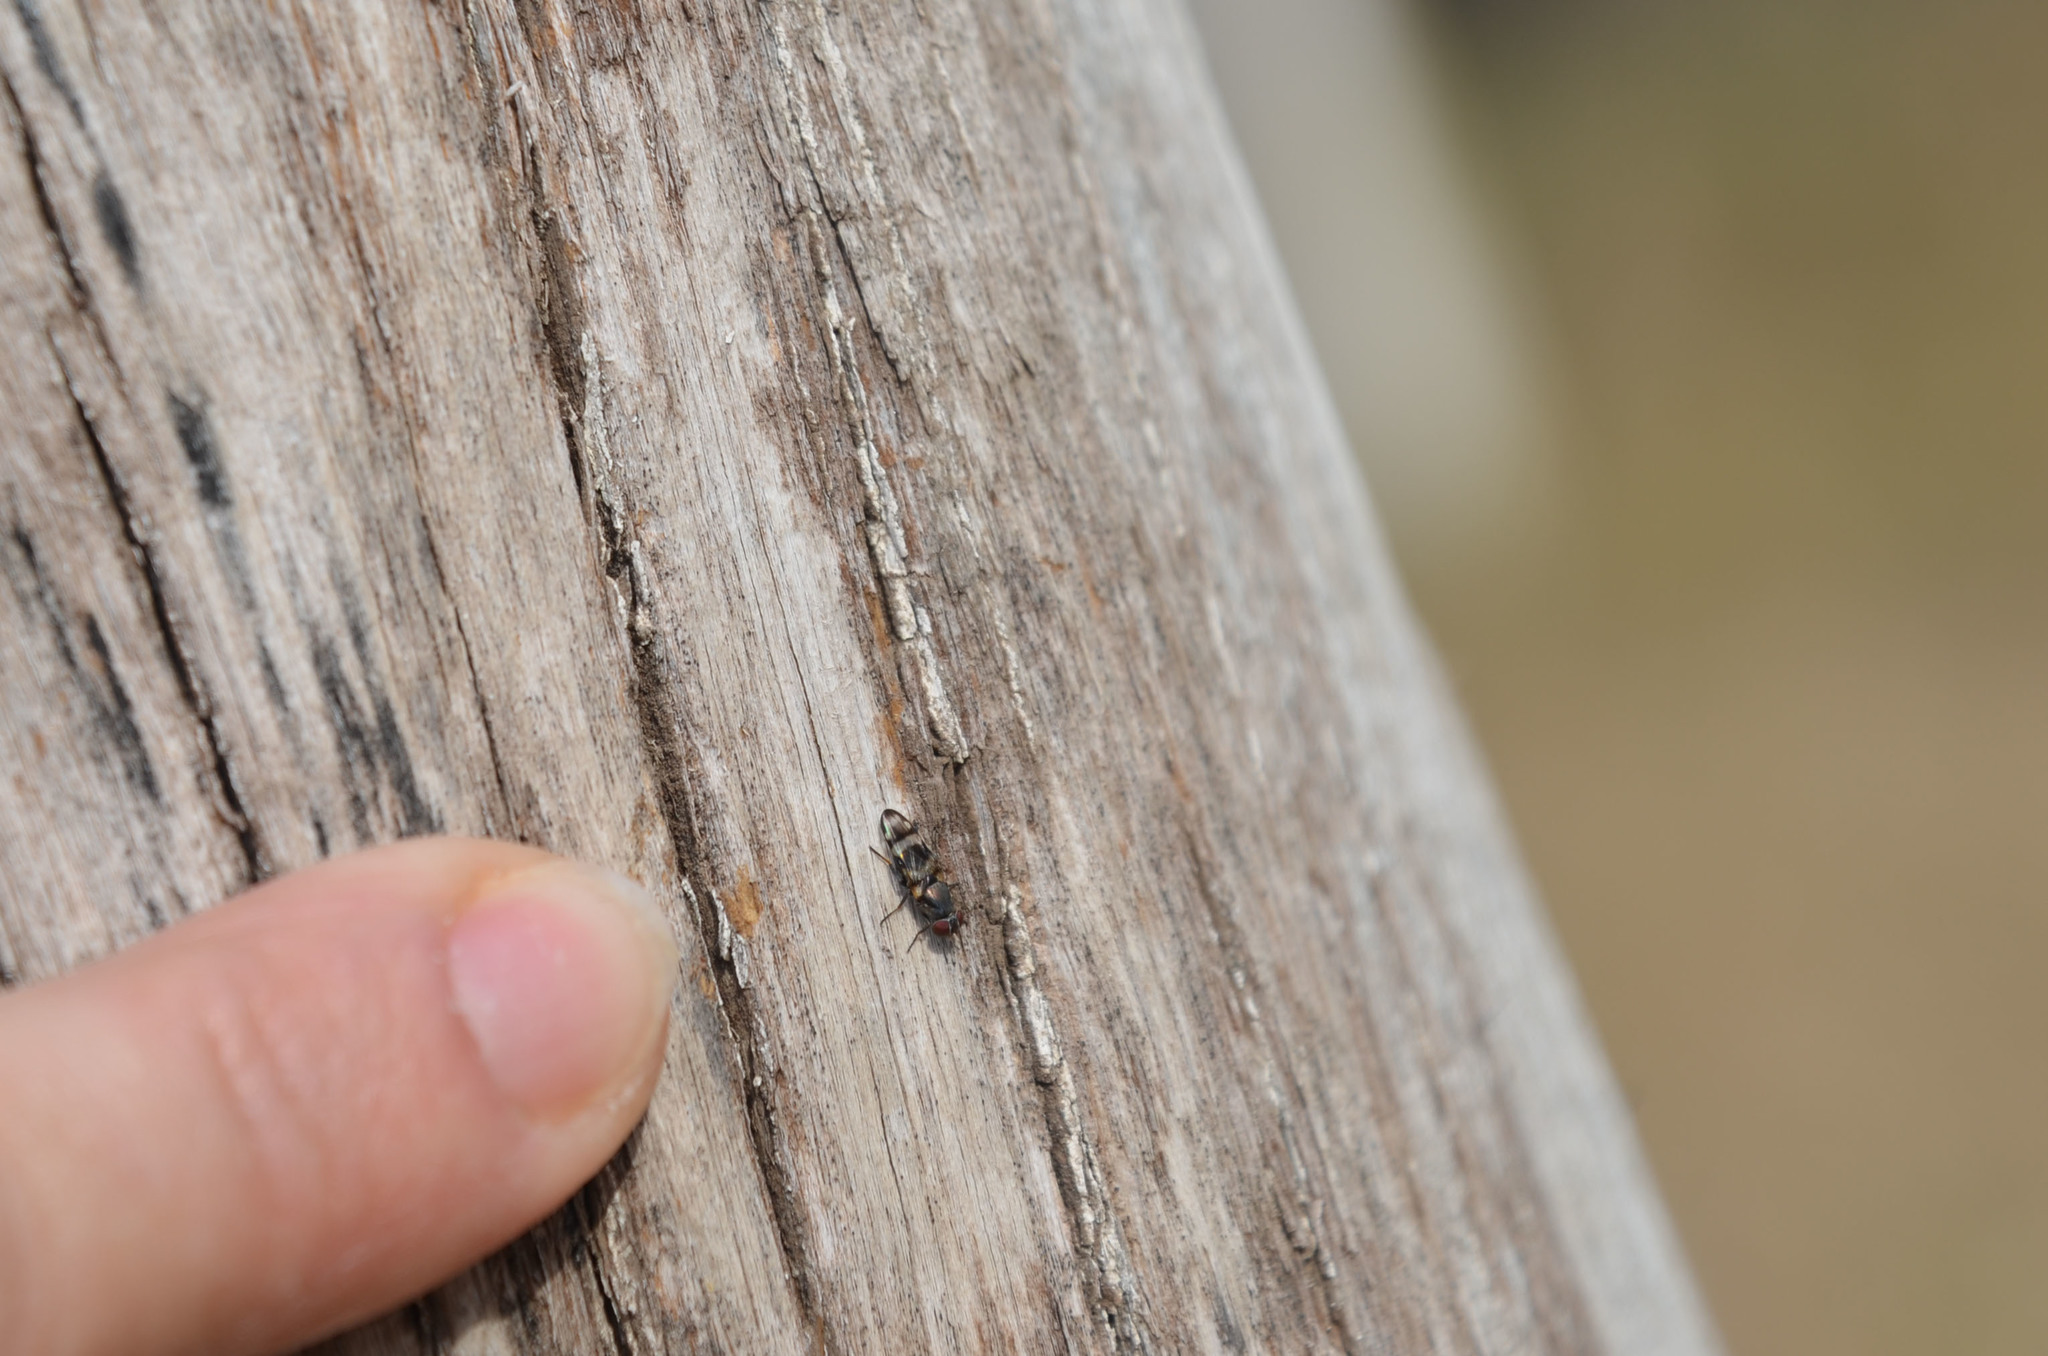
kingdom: Animalia
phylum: Arthropoda
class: Insecta
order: Diptera
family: Ulidiidae
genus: Euxesta
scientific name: Euxesta eluta
